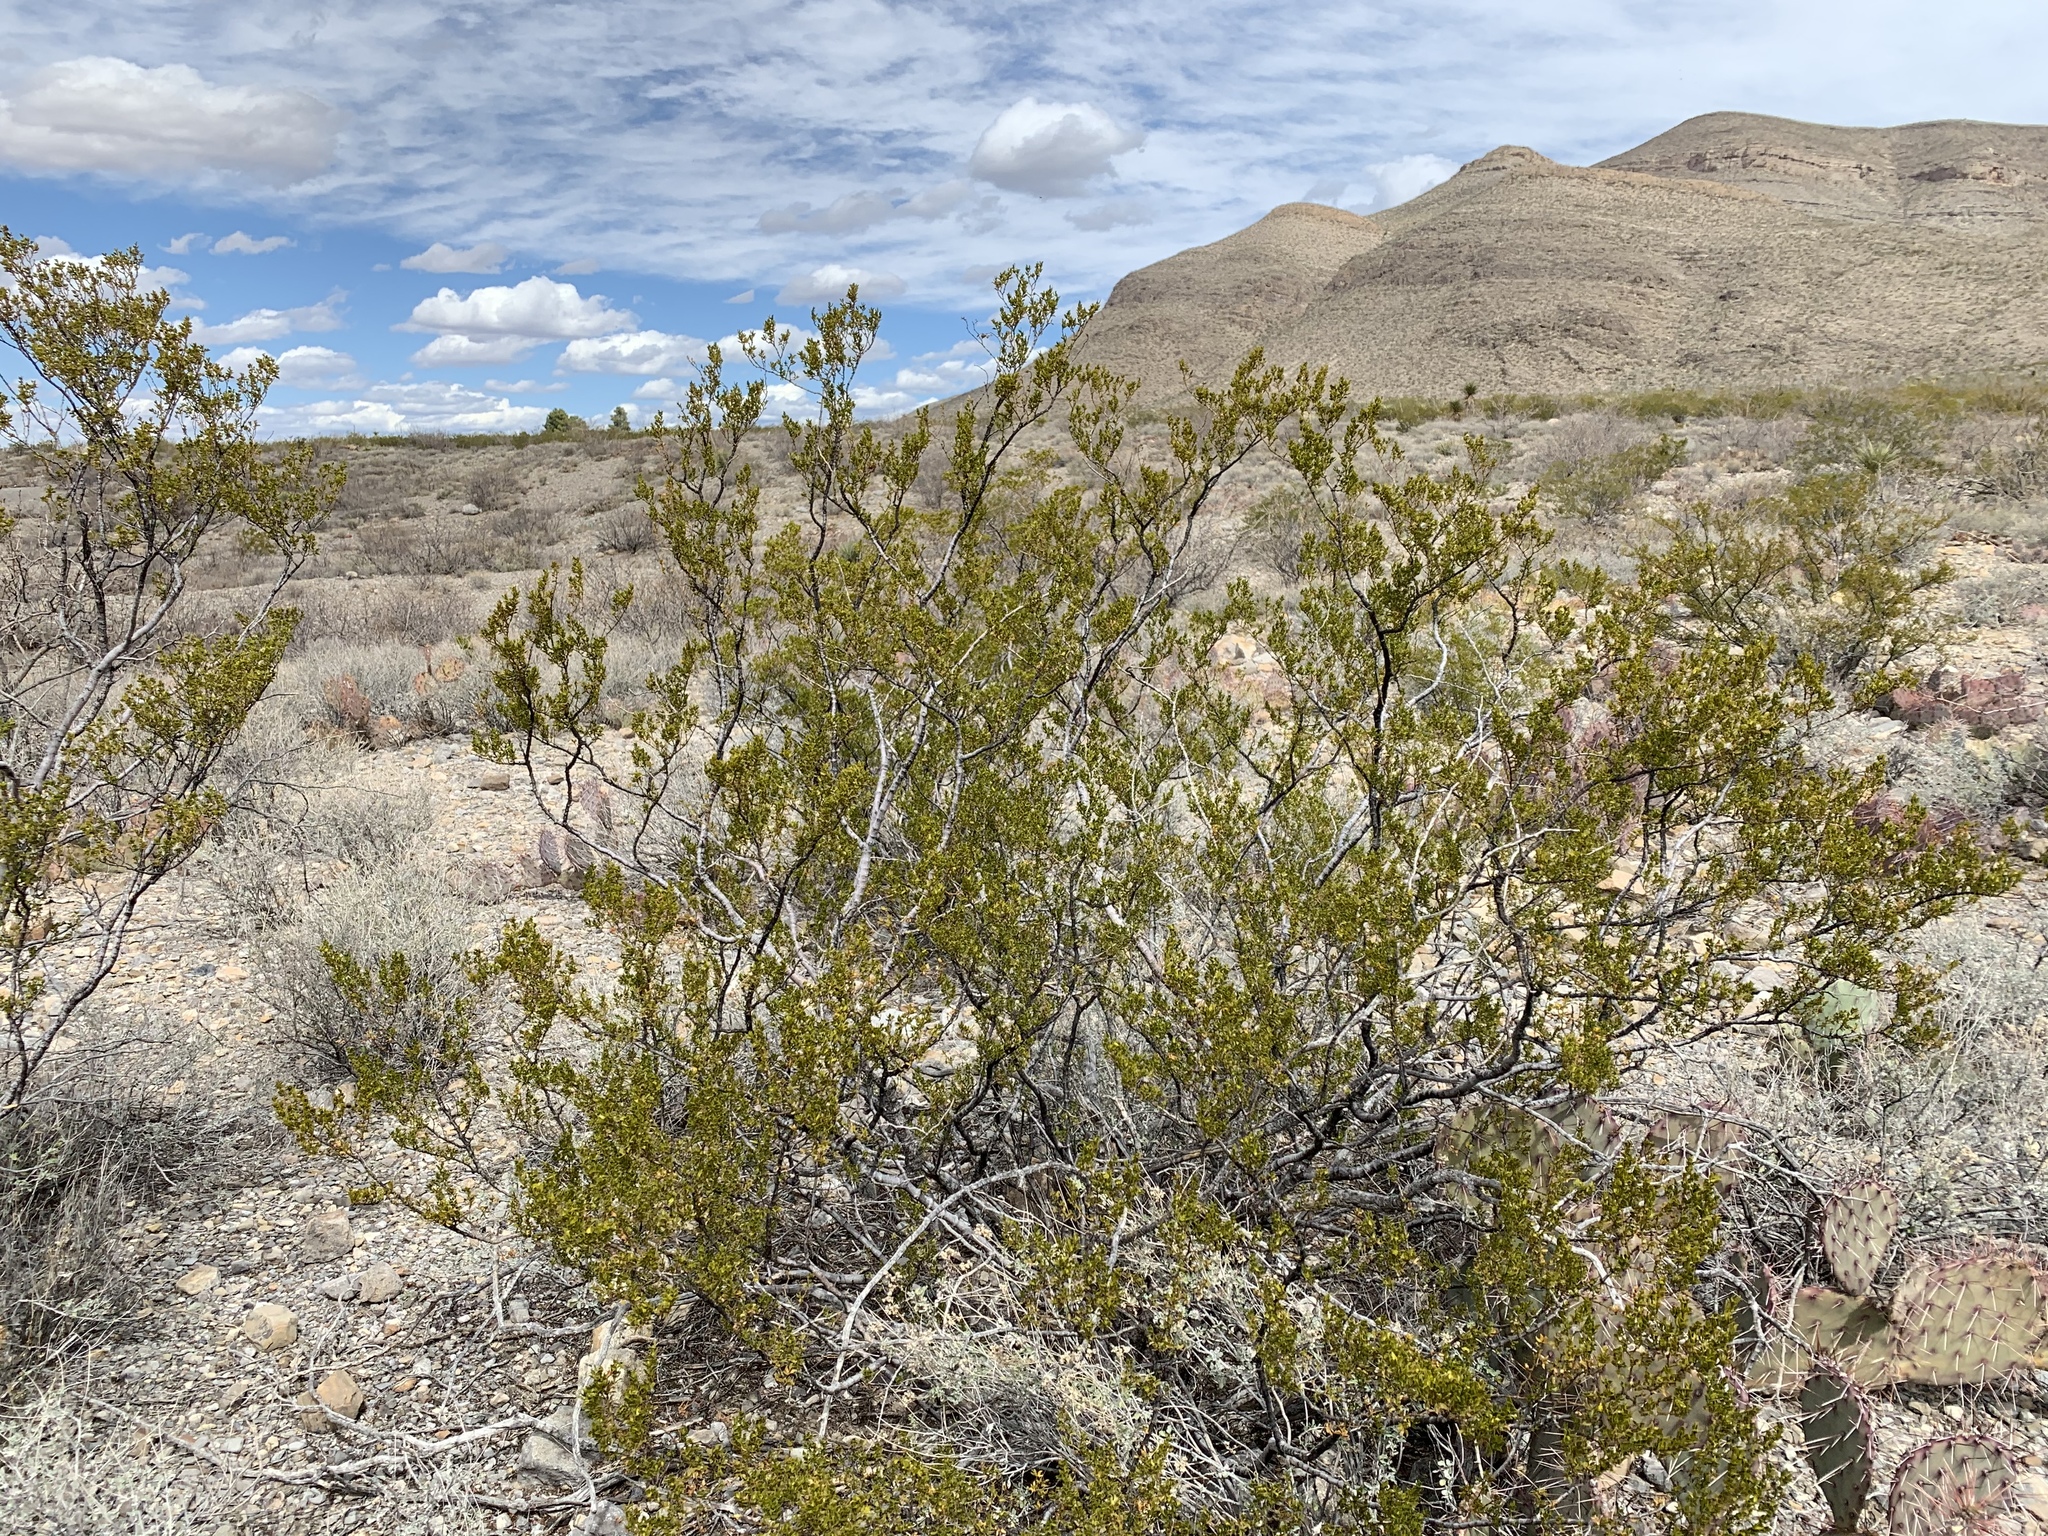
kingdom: Plantae
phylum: Tracheophyta
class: Magnoliopsida
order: Zygophyllales
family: Zygophyllaceae
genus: Larrea
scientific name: Larrea tridentata
